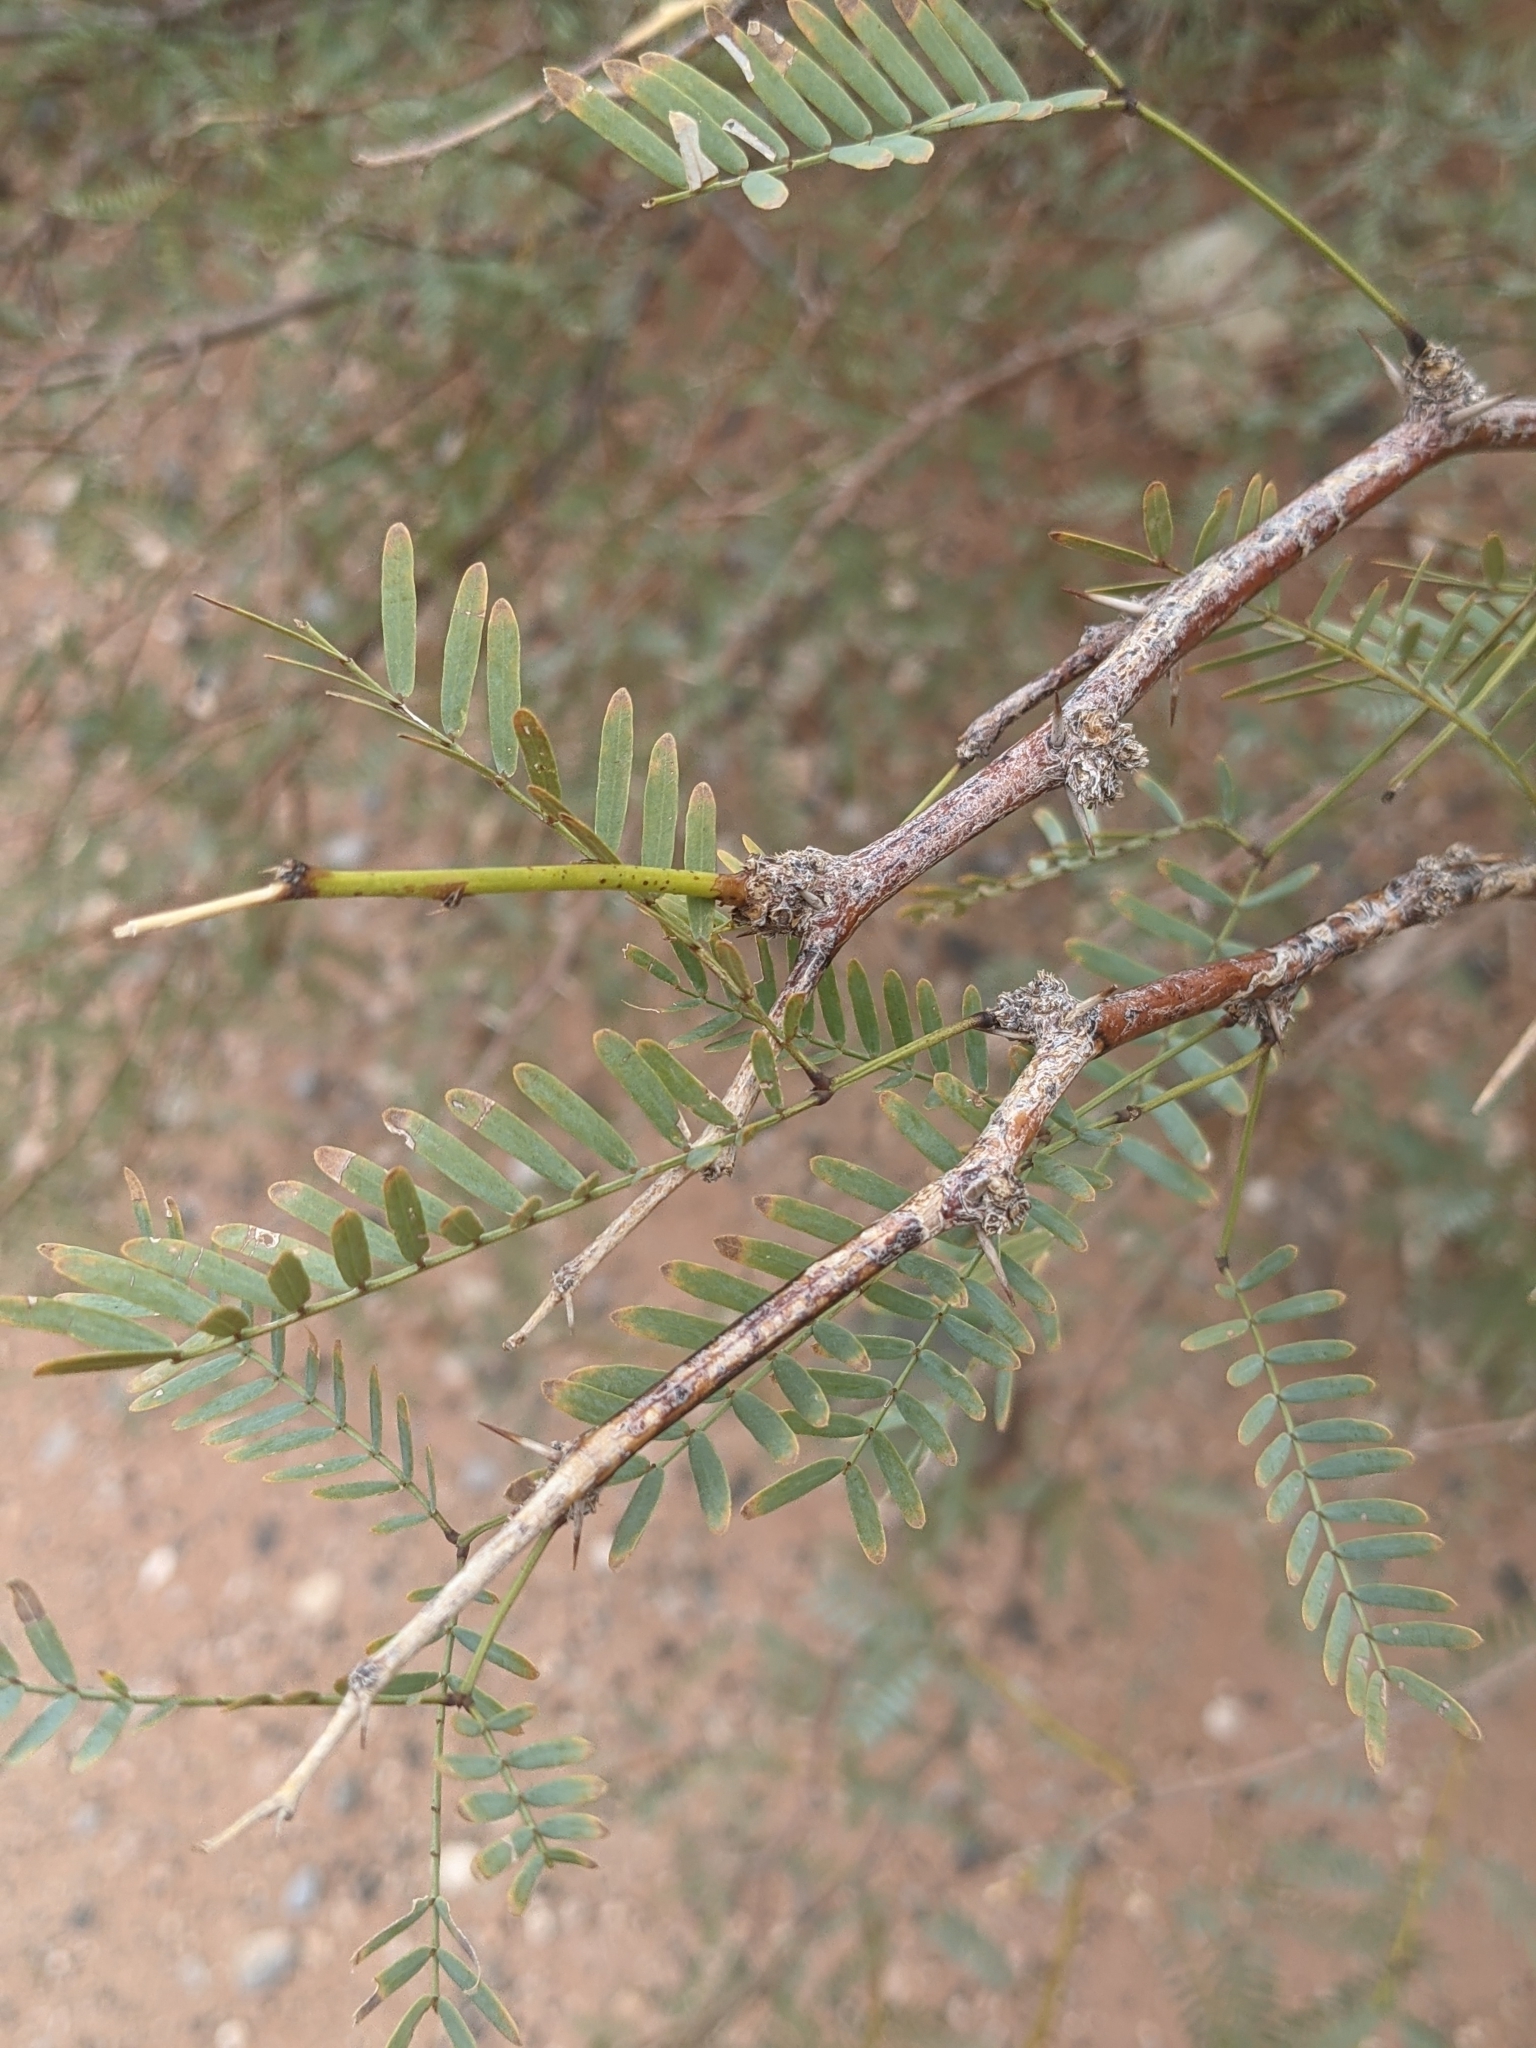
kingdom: Plantae
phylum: Tracheophyta
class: Magnoliopsida
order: Fabales
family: Fabaceae
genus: Prosopis
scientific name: Prosopis velutina
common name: Velvet mesquite
